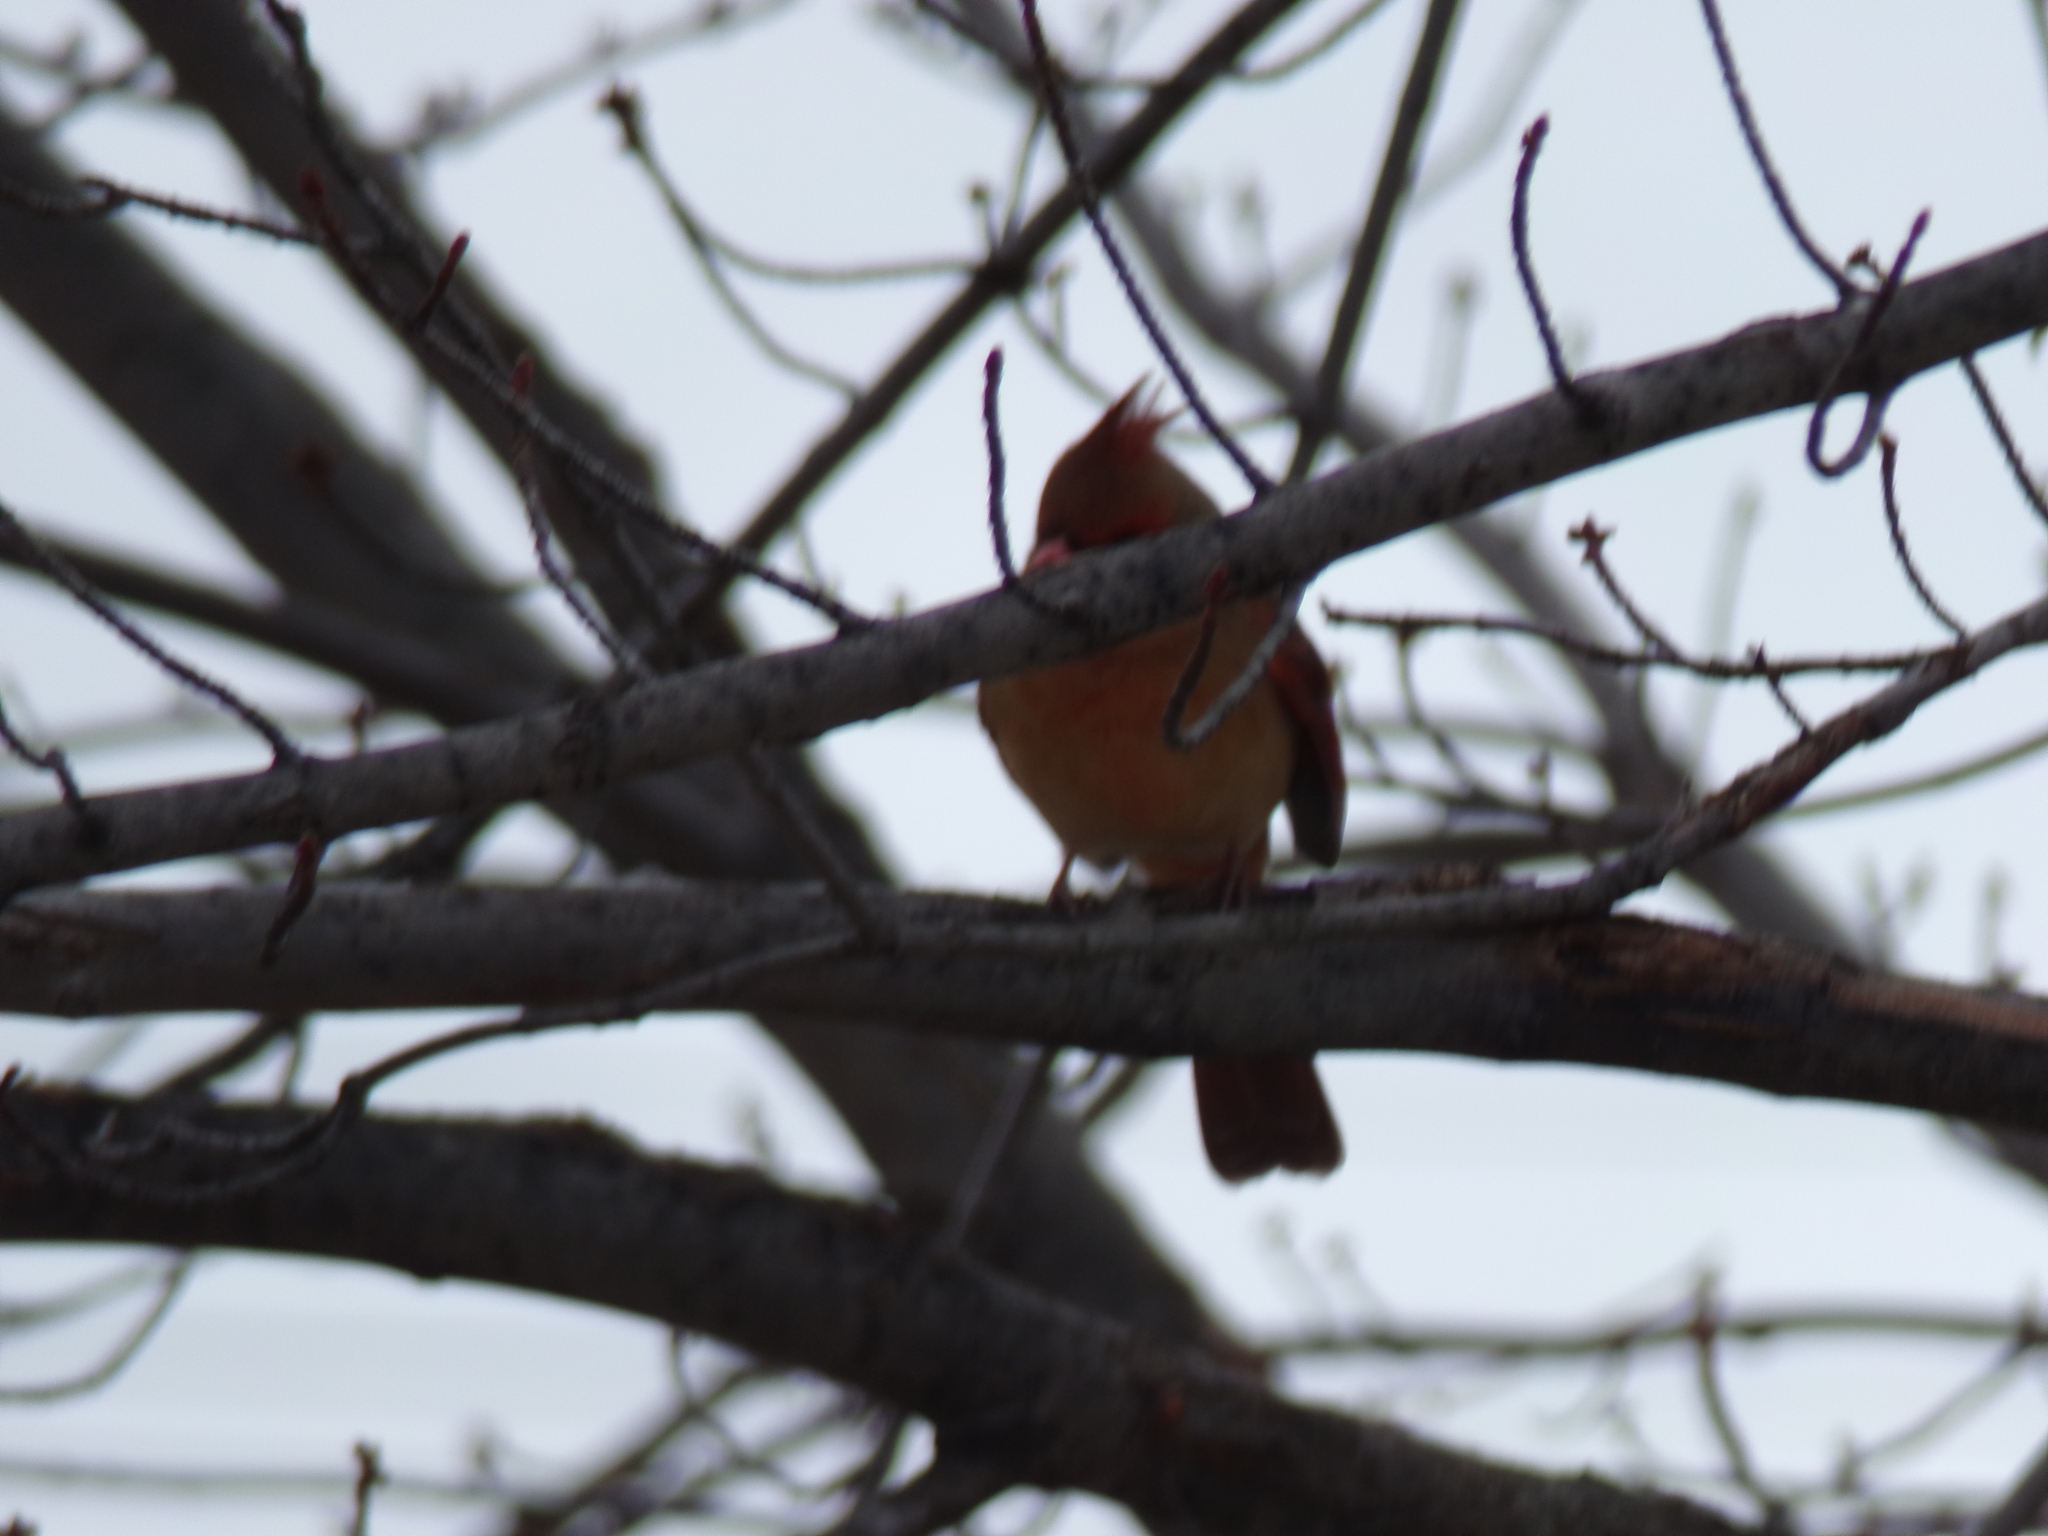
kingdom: Animalia
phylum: Chordata
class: Aves
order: Passeriformes
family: Cardinalidae
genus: Cardinalis
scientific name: Cardinalis cardinalis
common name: Northern cardinal
